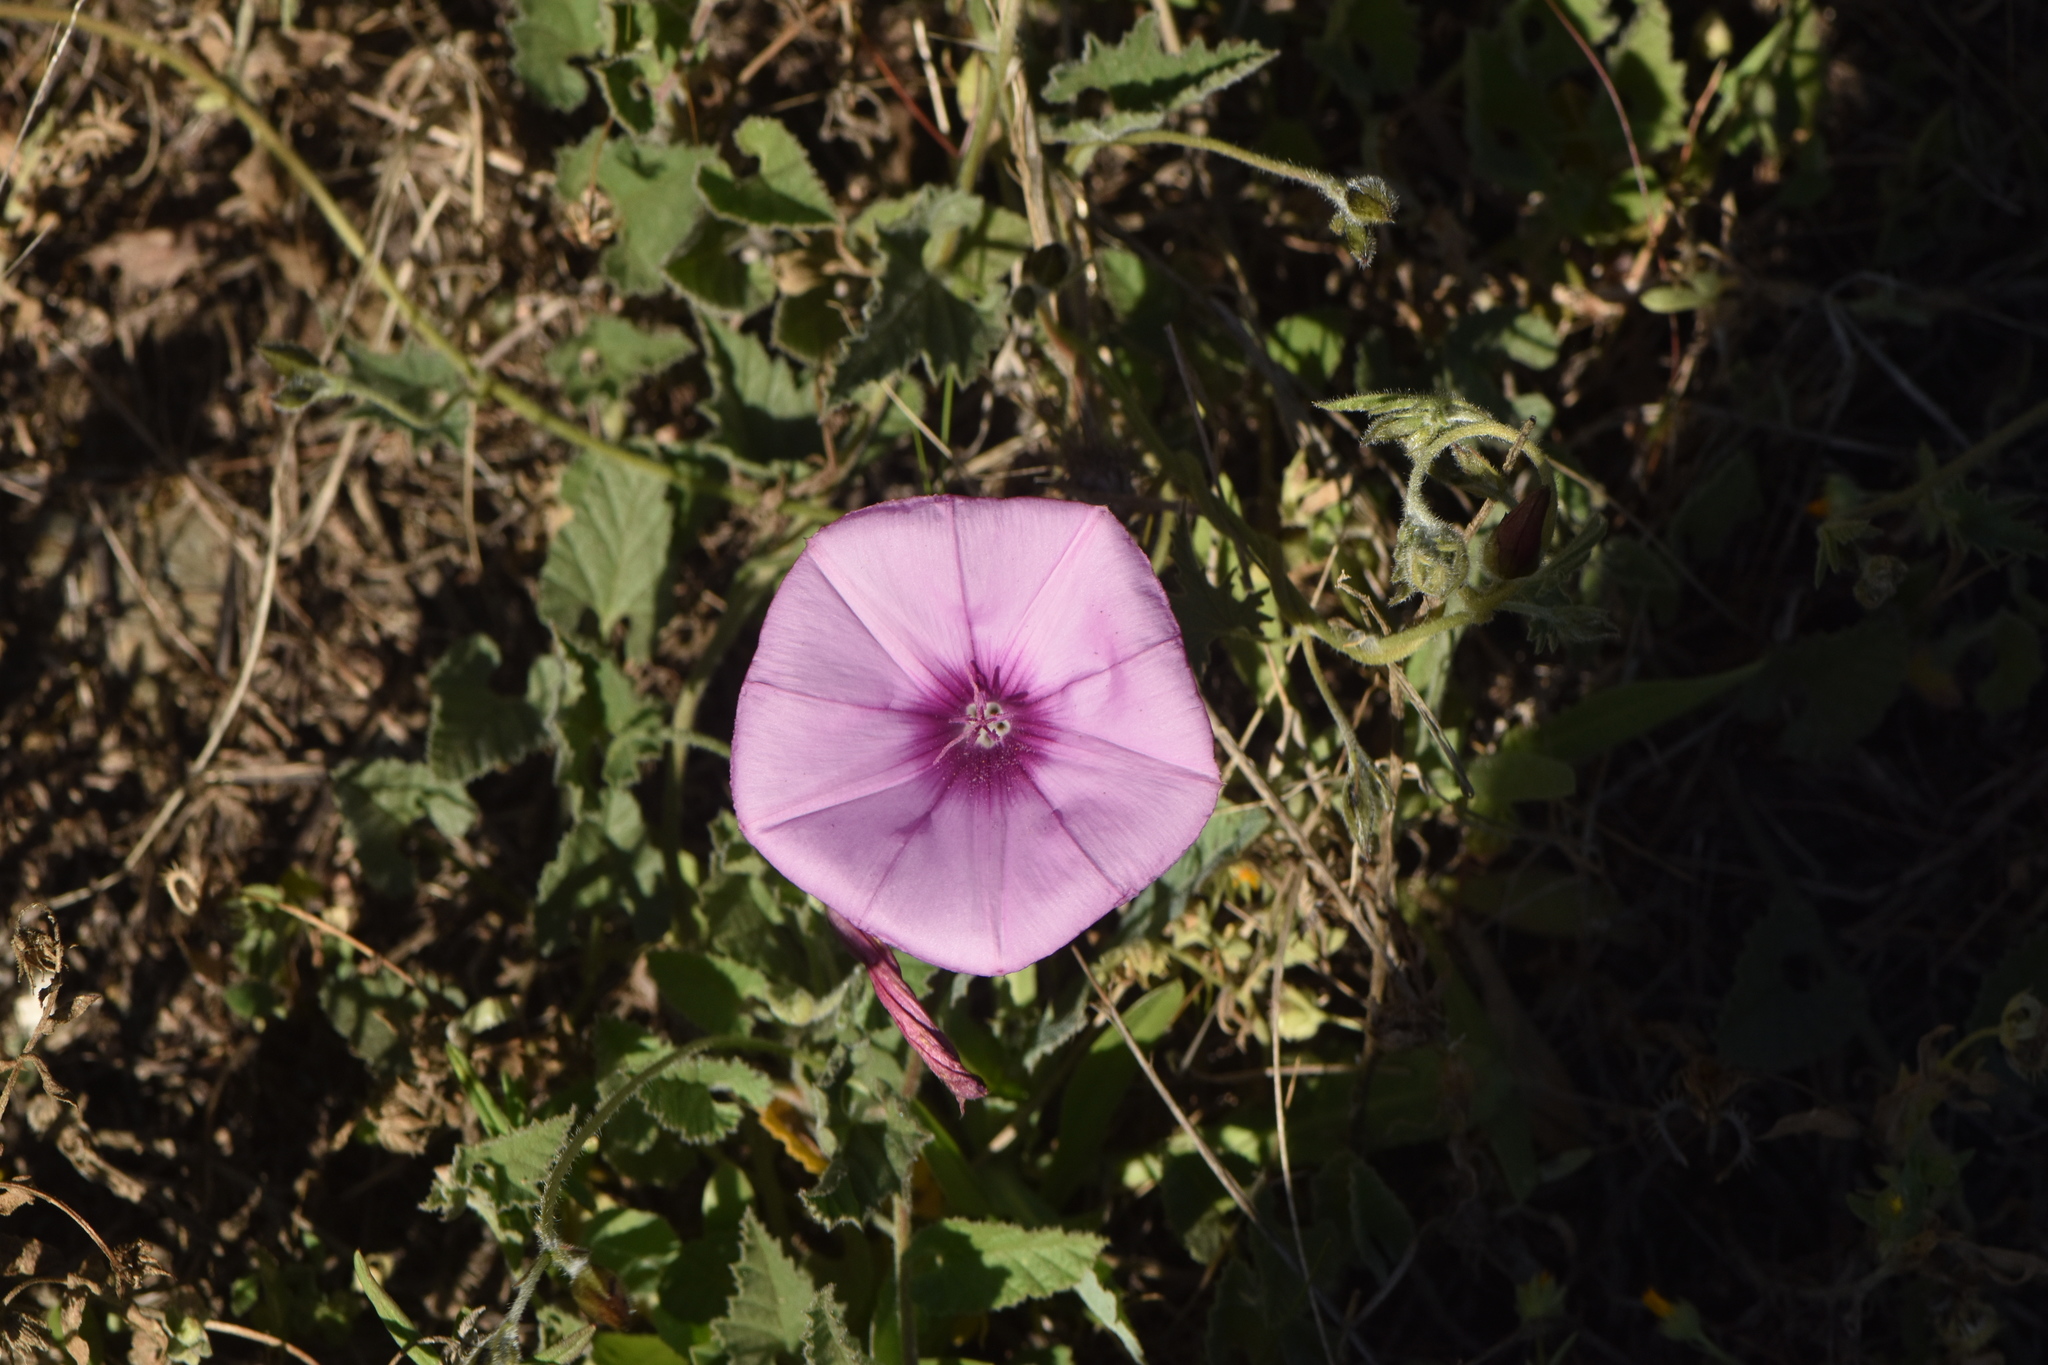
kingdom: Plantae
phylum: Tracheophyta
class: Magnoliopsida
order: Solanales
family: Convolvulaceae
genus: Convolvulus
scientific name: Convolvulus althaeoides
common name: Mallow bindweed
